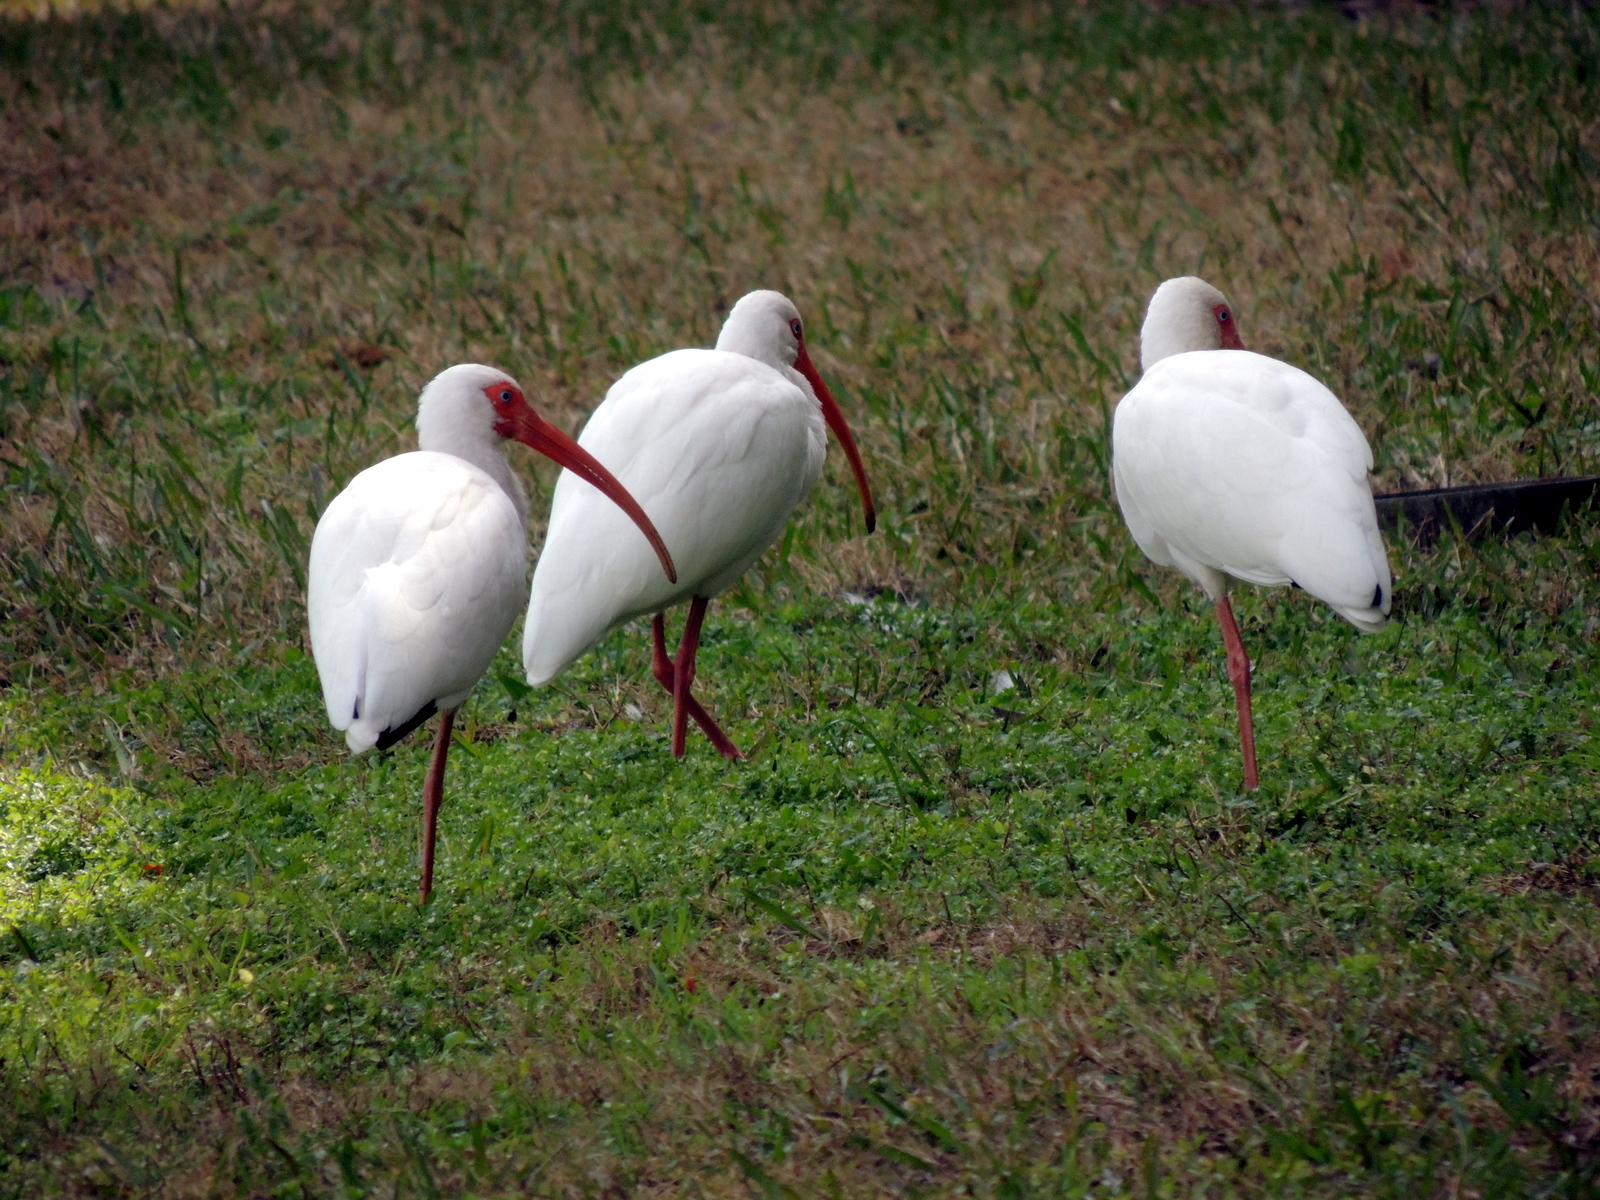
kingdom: Animalia
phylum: Chordata
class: Aves
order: Pelecaniformes
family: Threskiornithidae
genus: Eudocimus
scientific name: Eudocimus albus
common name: White ibis
